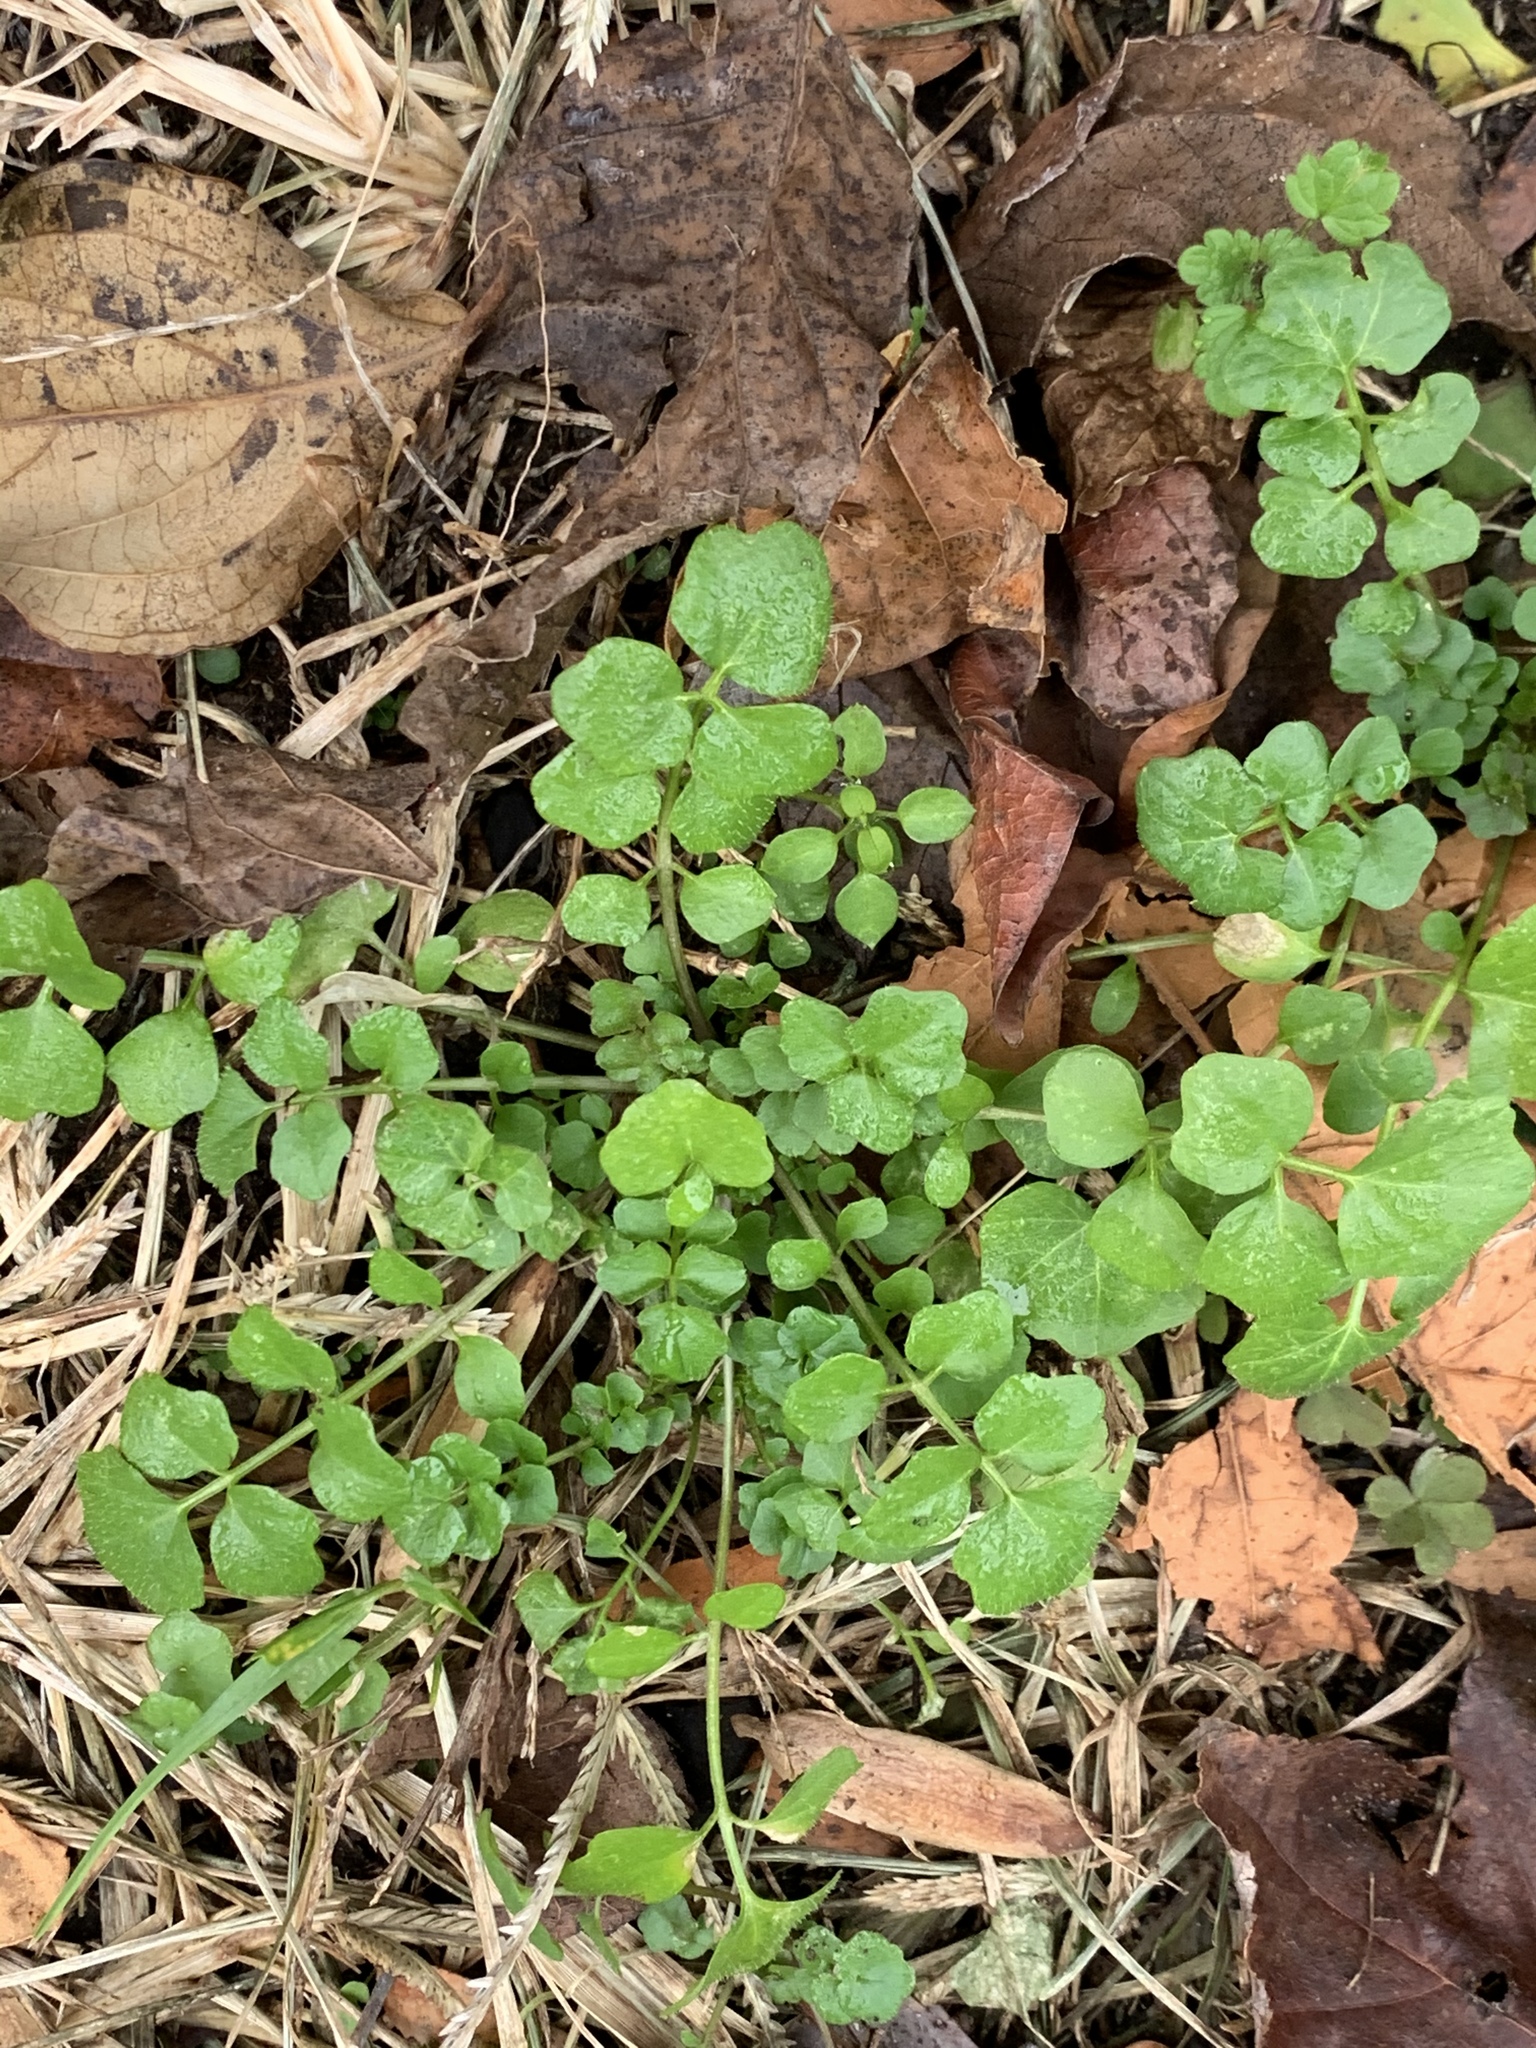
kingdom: Plantae
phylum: Tracheophyta
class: Magnoliopsida
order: Brassicales
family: Brassicaceae
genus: Cardamine
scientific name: Cardamine hirsuta
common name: Hairy bittercress
